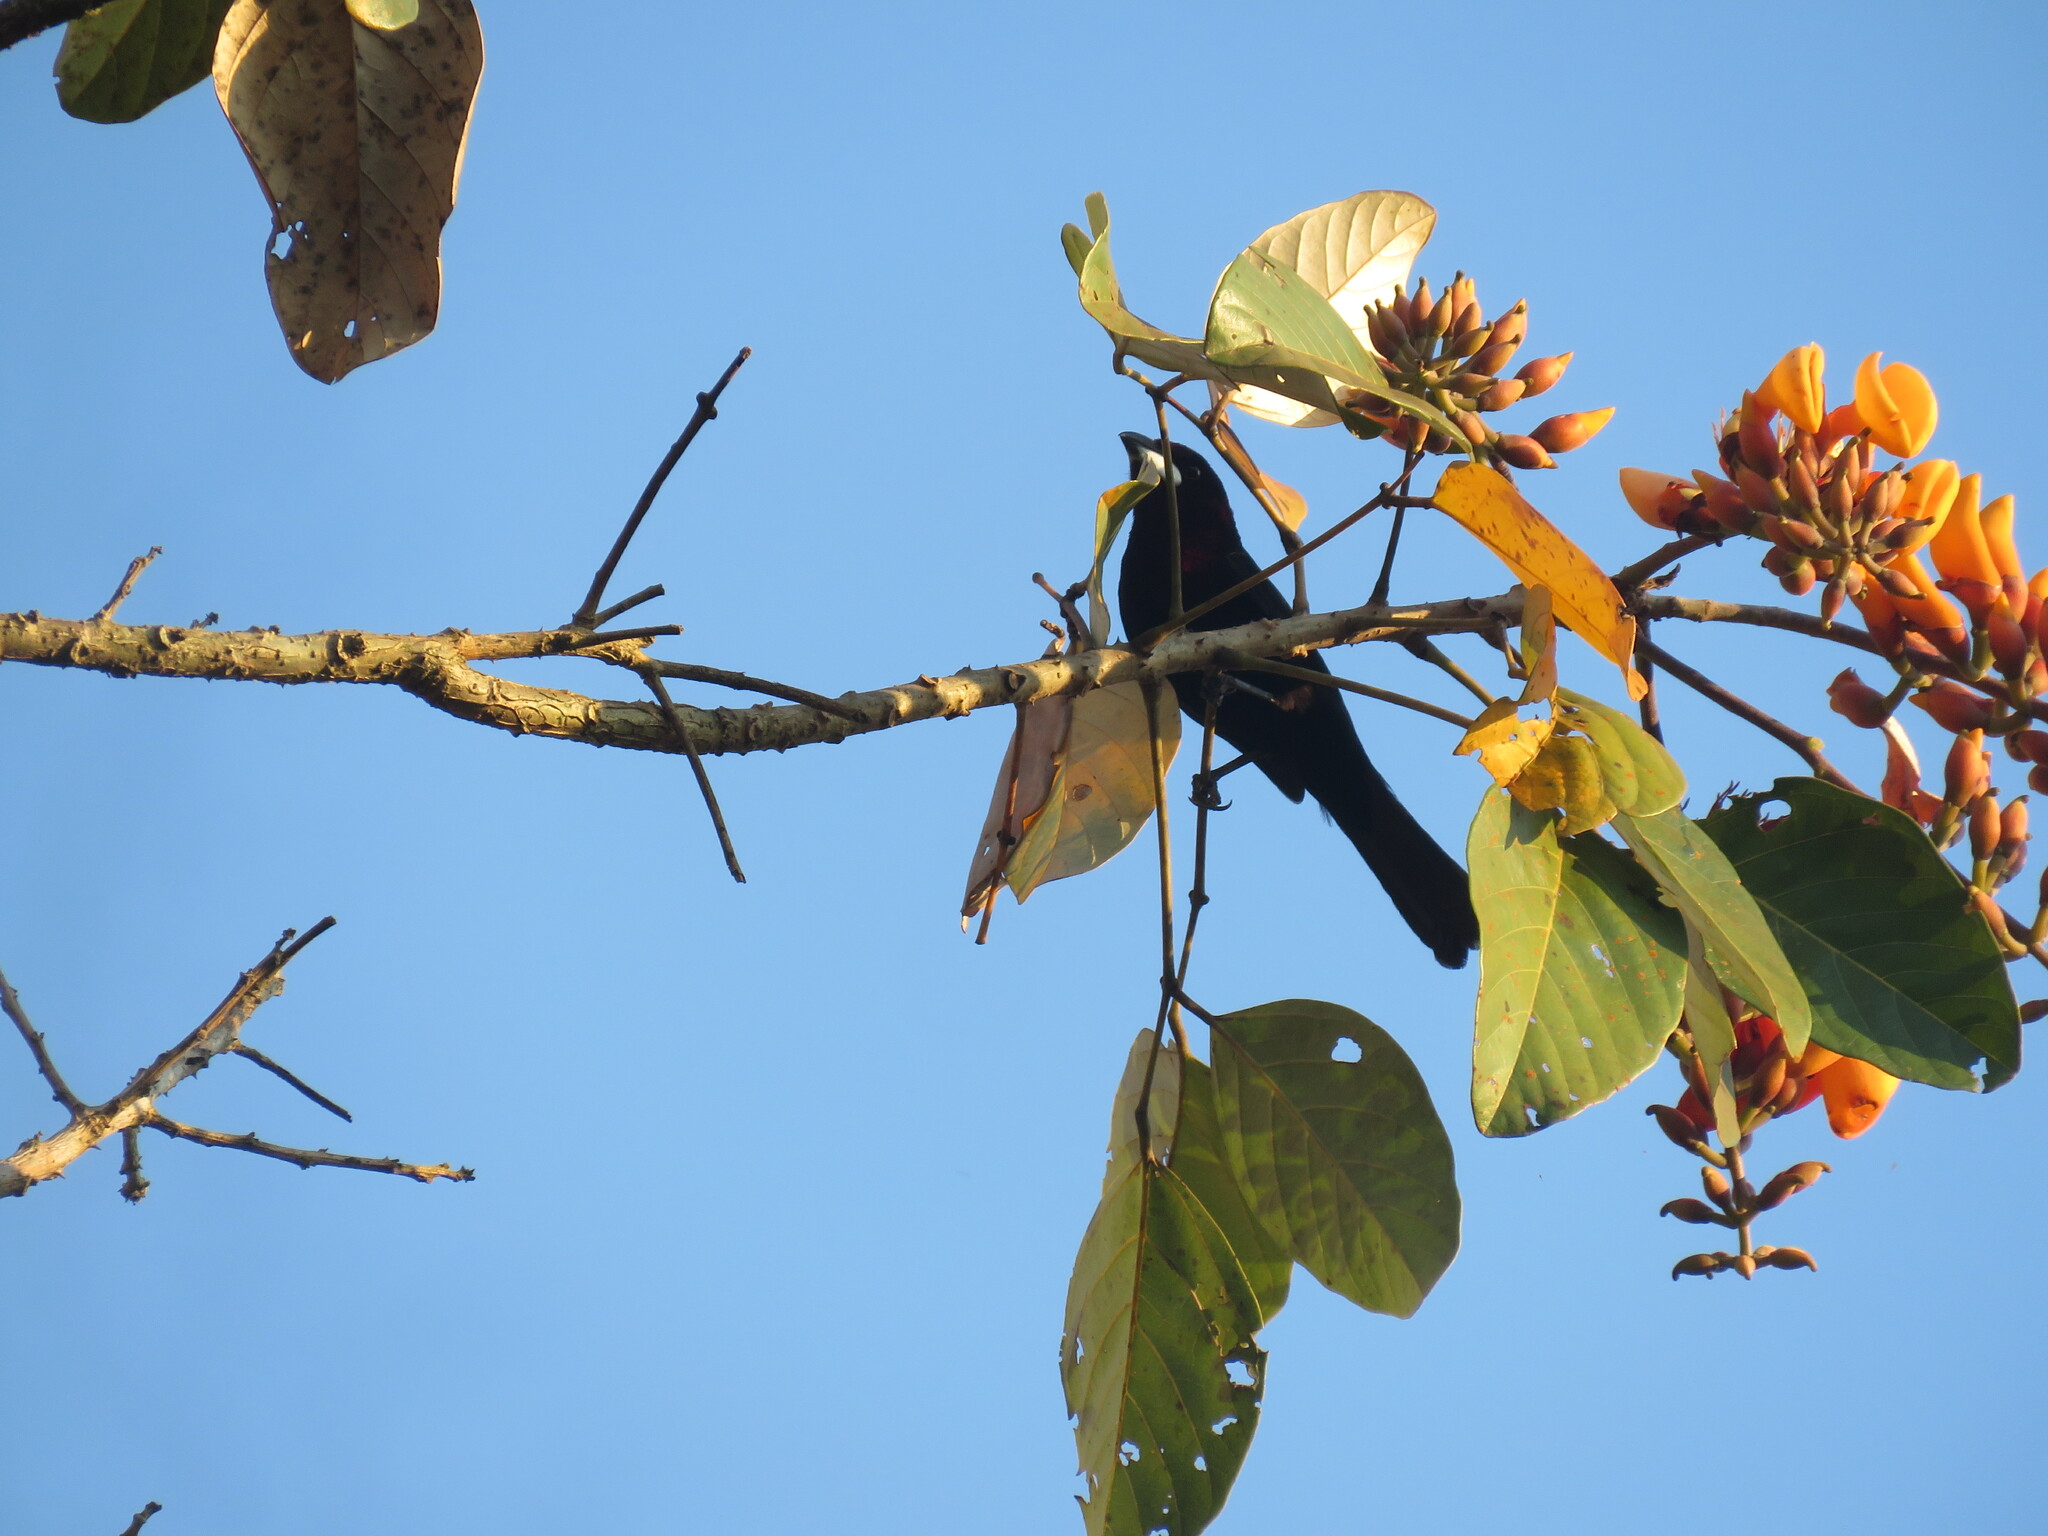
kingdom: Animalia
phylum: Chordata
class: Aves
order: Passeriformes
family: Thraupidae
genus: Ramphocelus
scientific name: Ramphocelus carbo
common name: Silver-beaked tanager
